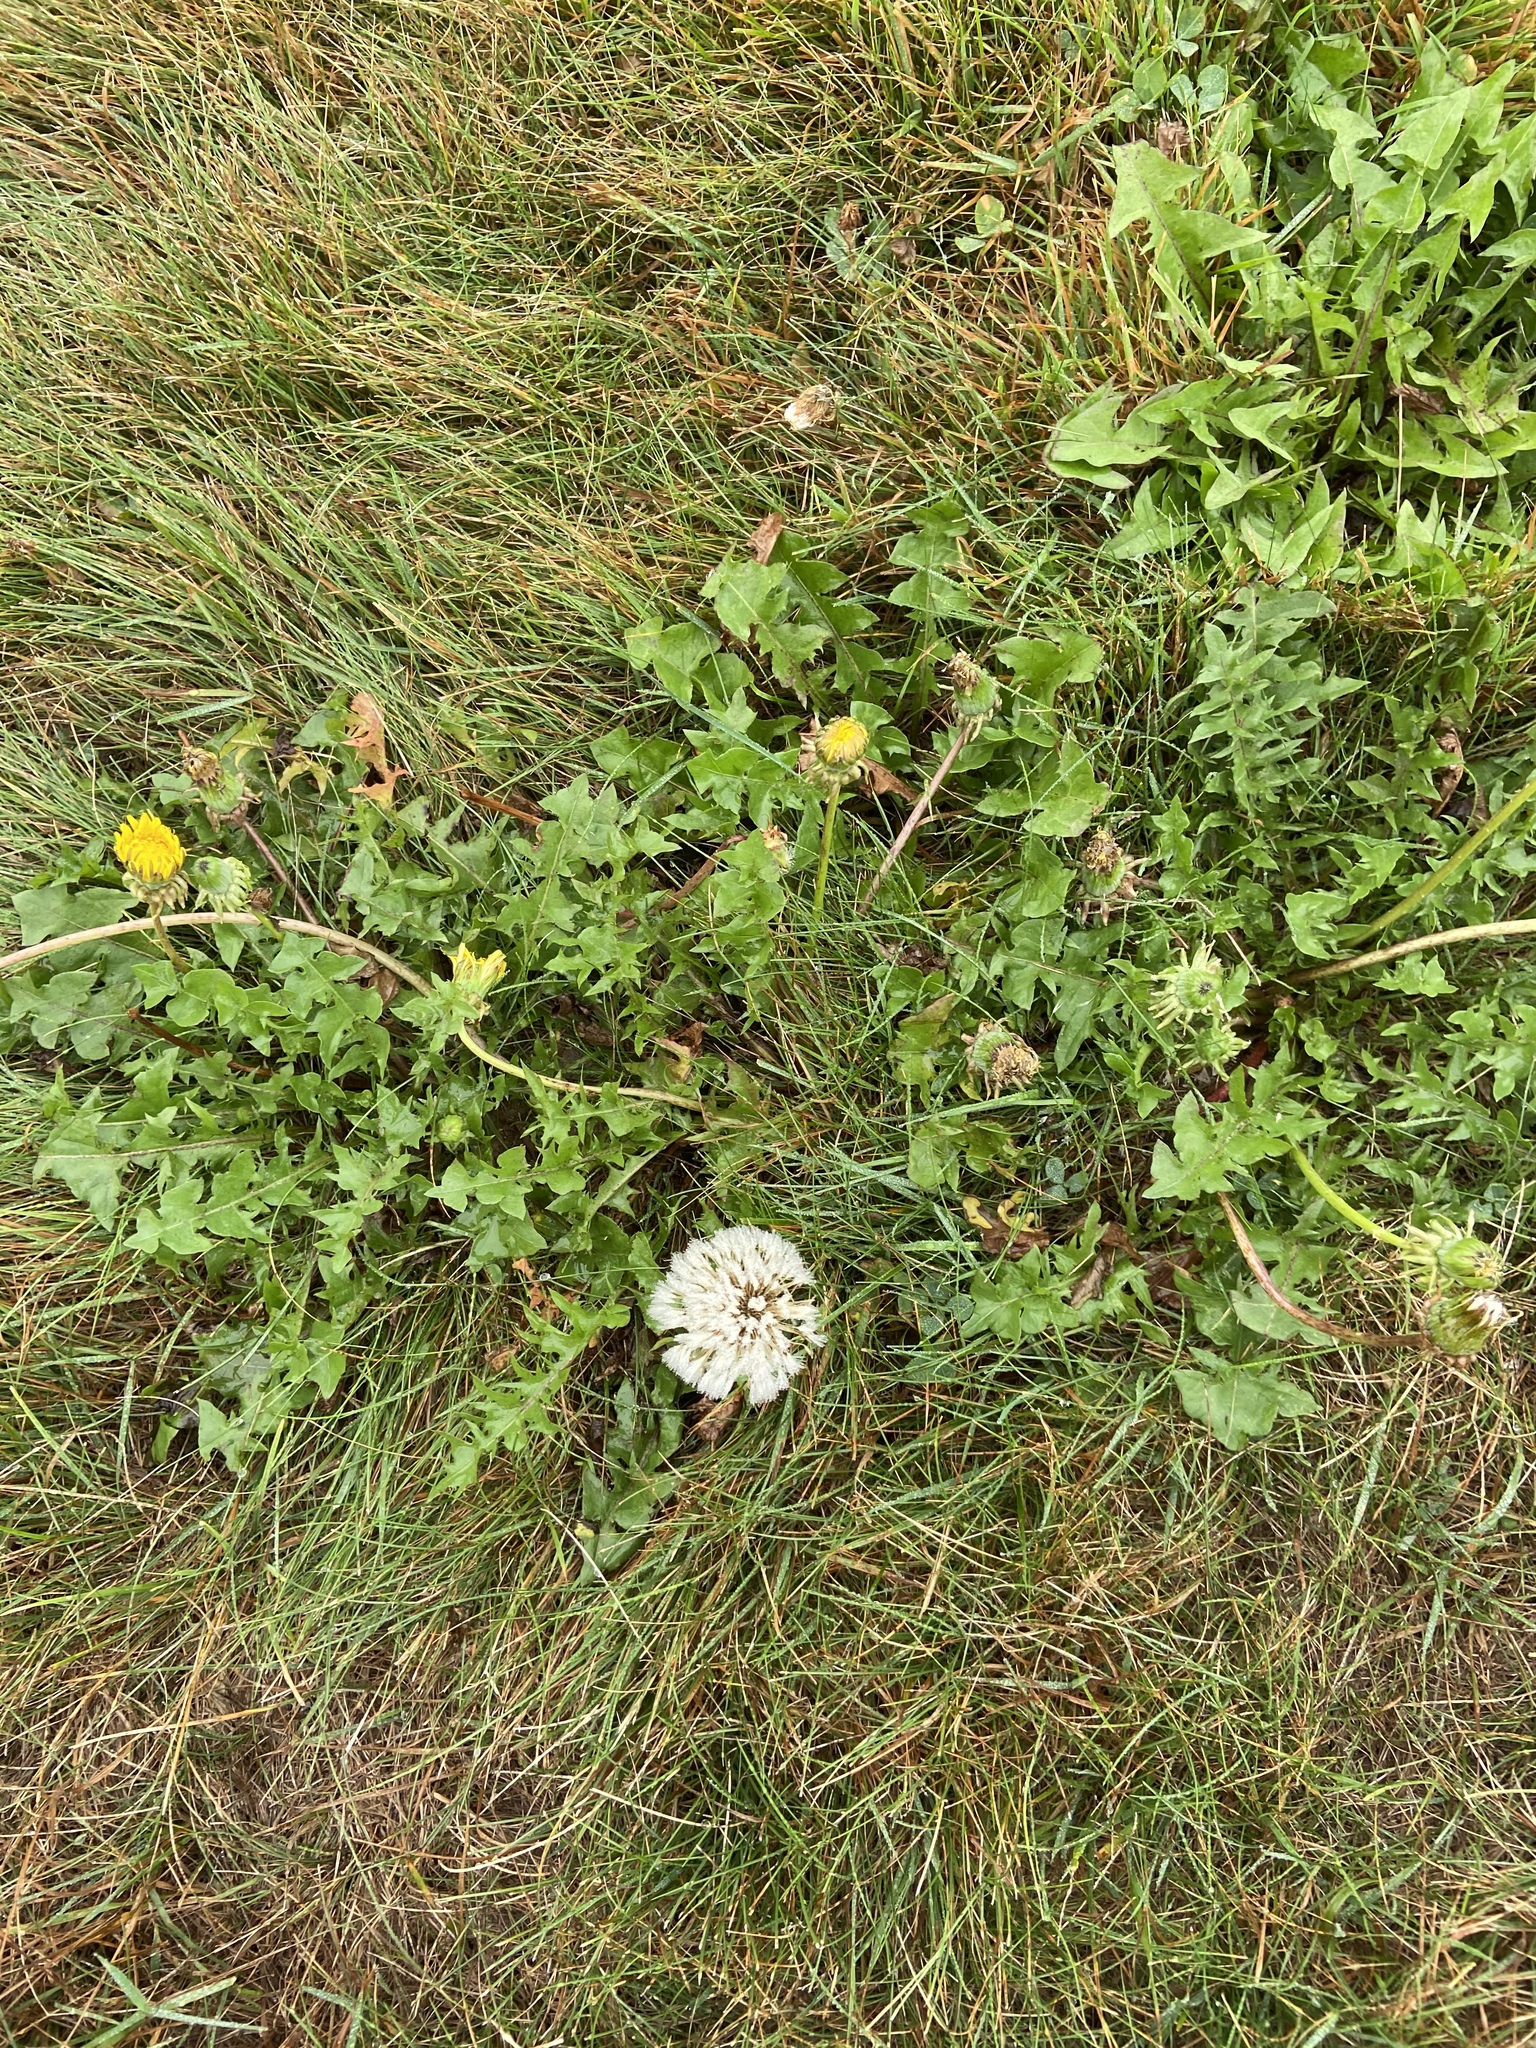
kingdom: Plantae
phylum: Tracheophyta
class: Magnoliopsida
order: Asterales
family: Asteraceae
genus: Taraxacum
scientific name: Taraxacum officinale
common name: Common dandelion
